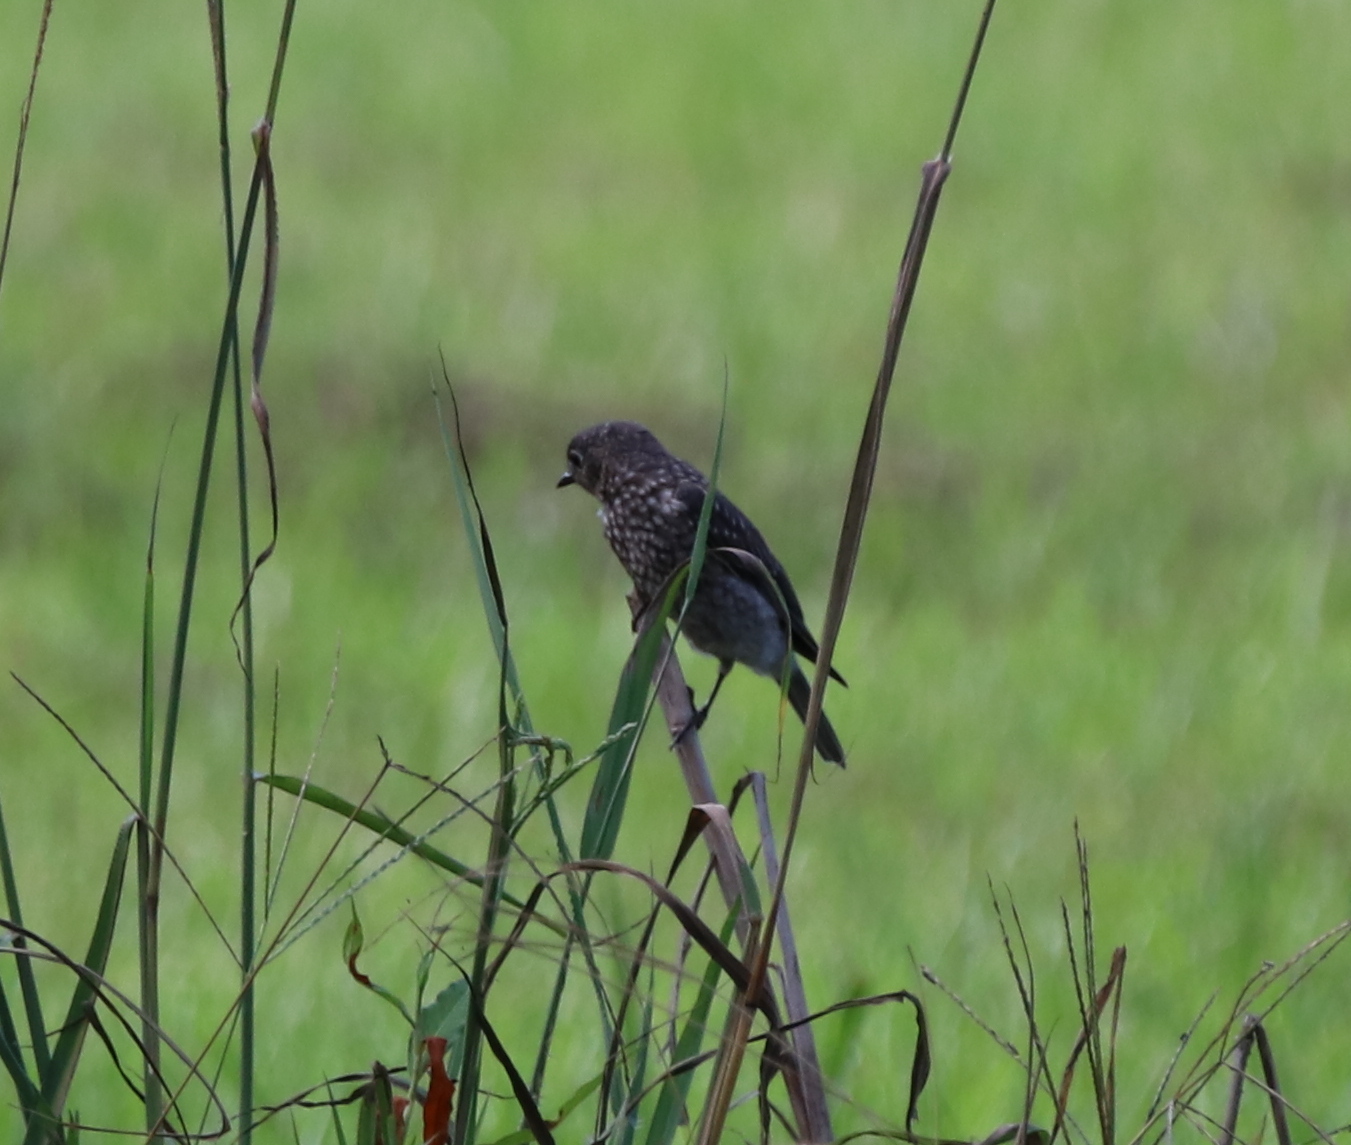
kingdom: Animalia
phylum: Chordata
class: Aves
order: Passeriformes
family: Turdidae
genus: Sialia
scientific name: Sialia sialis
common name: Eastern bluebird
